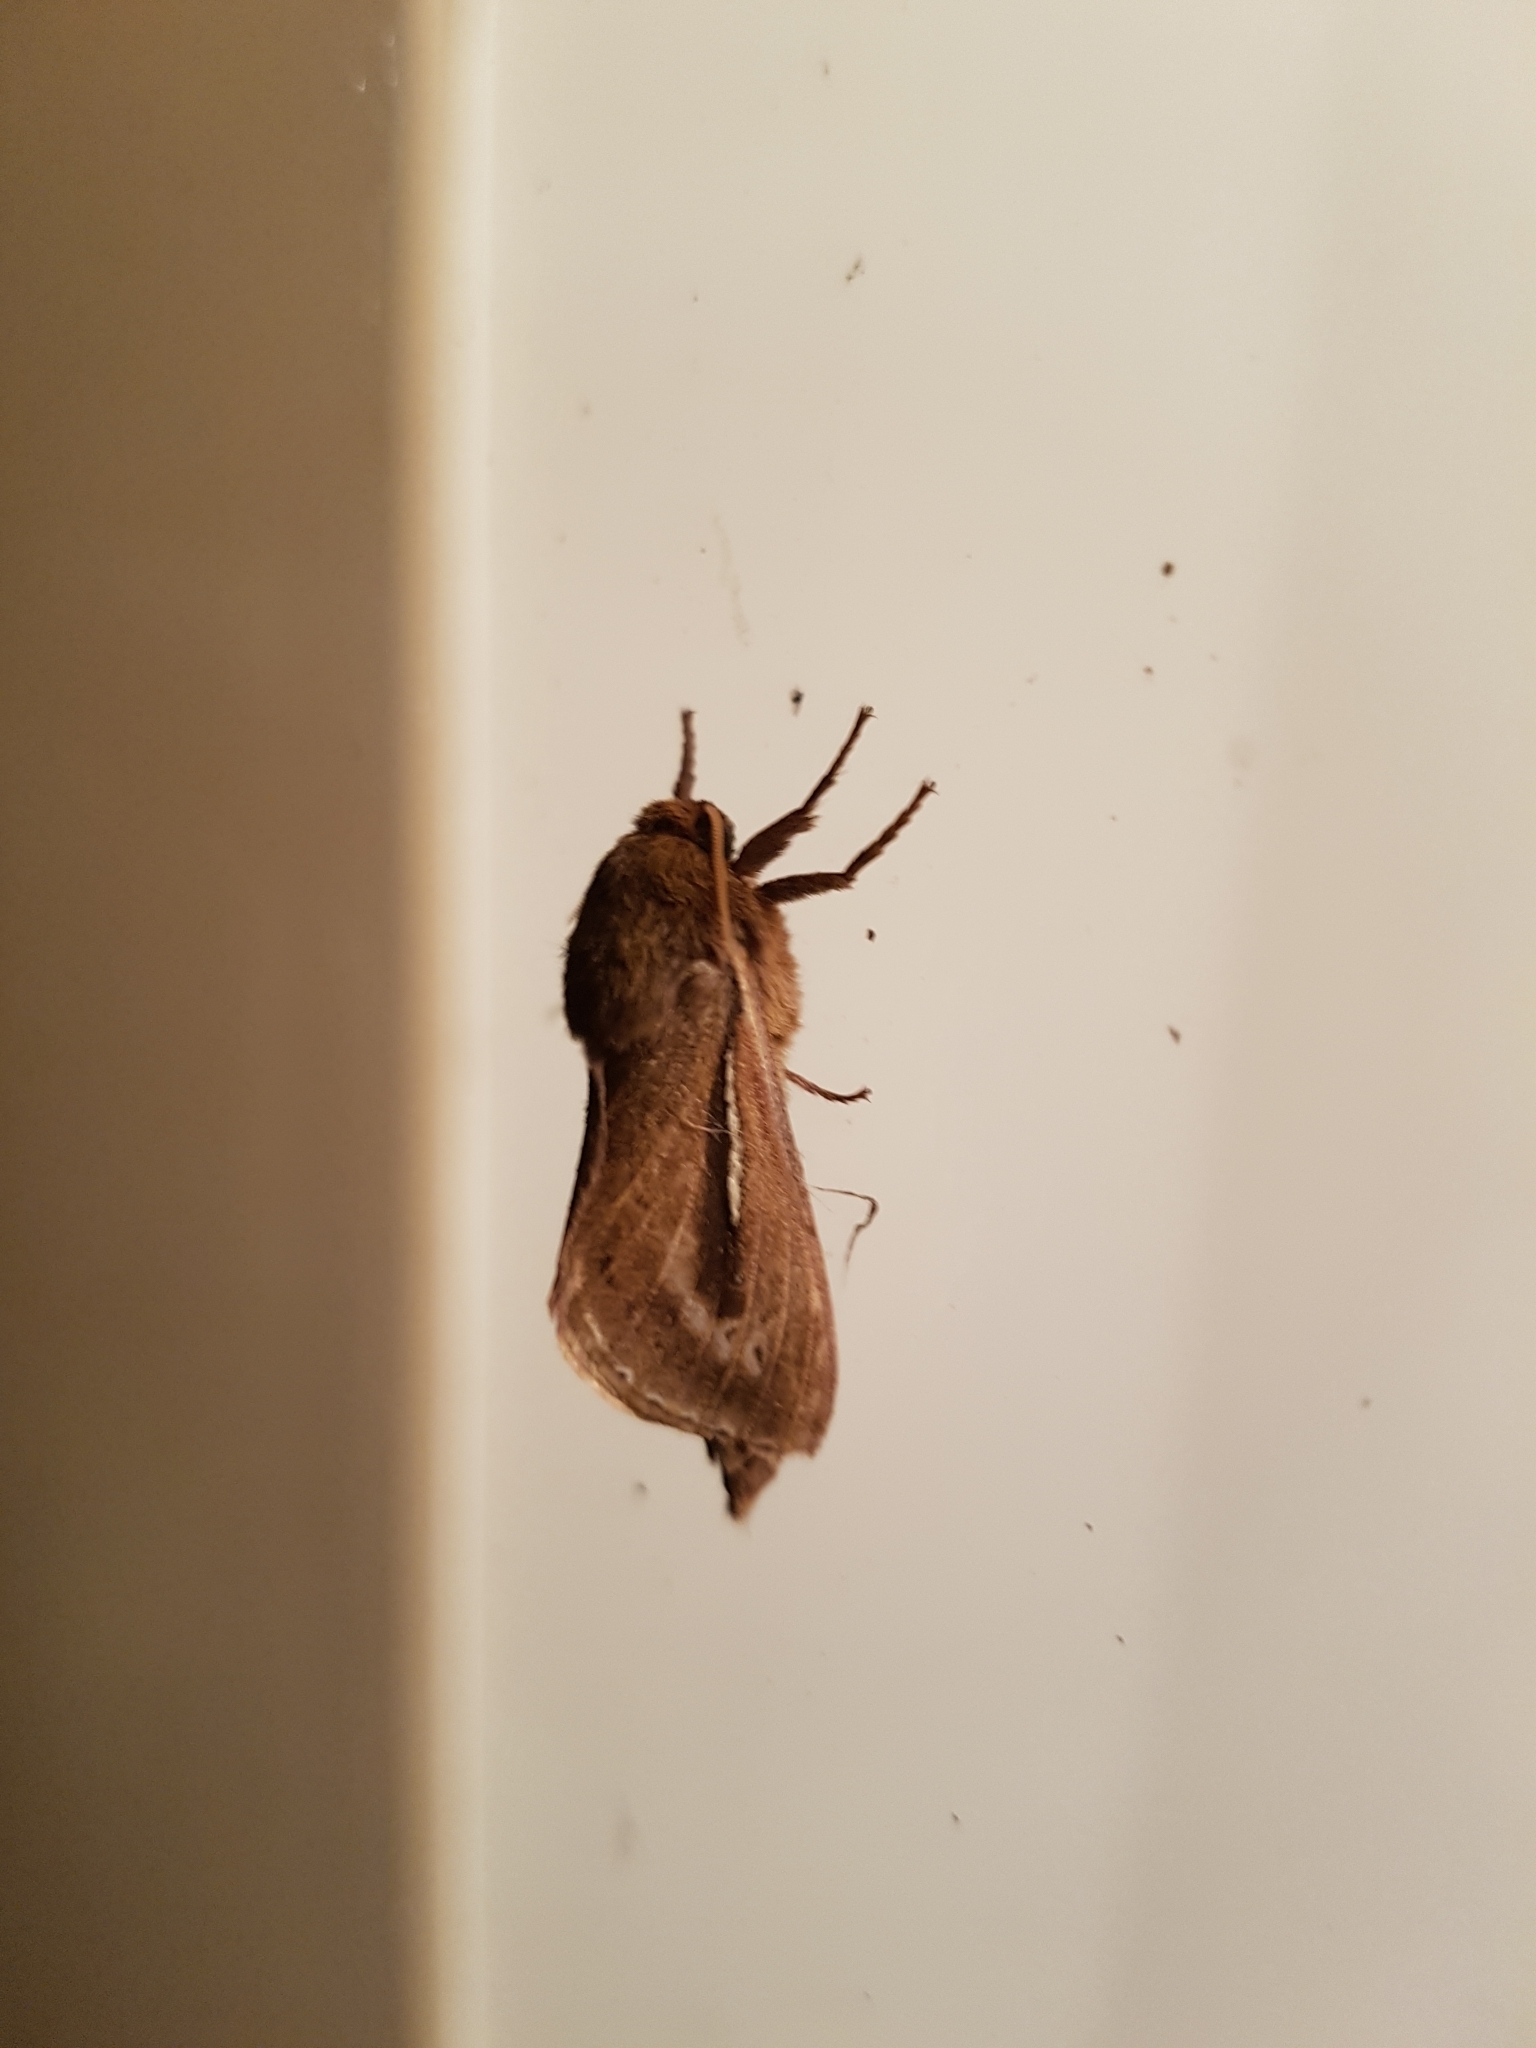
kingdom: Animalia
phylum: Arthropoda
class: Insecta
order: Lepidoptera
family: Hepialidae
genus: Wiseana
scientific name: Wiseana umbraculatus
